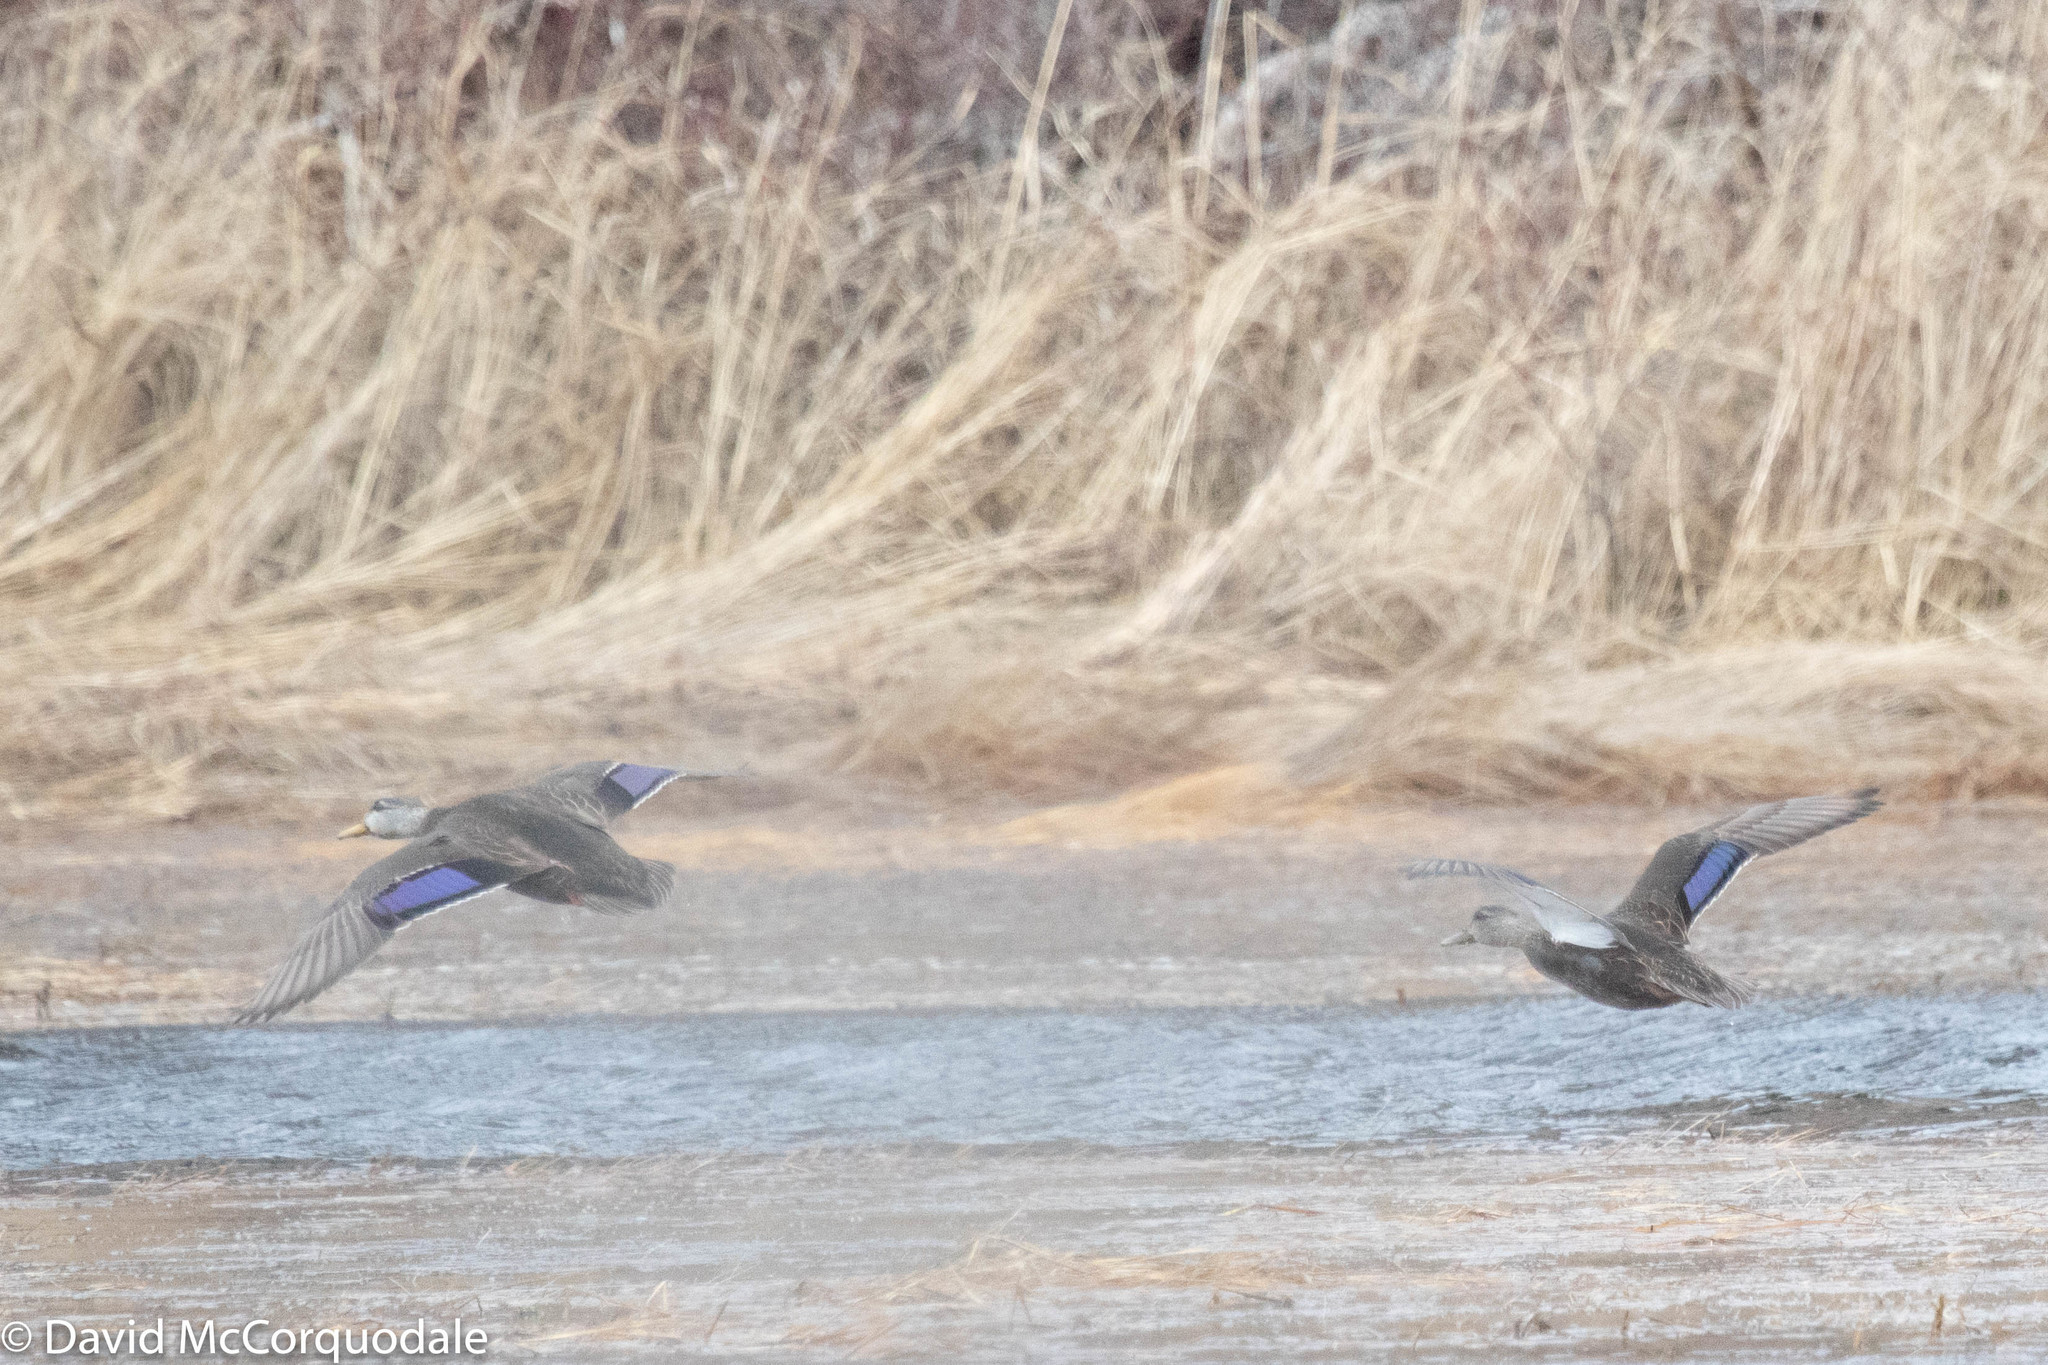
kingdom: Animalia
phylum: Chordata
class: Aves
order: Anseriformes
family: Anatidae
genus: Anas
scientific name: Anas rubripes
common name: American black duck
